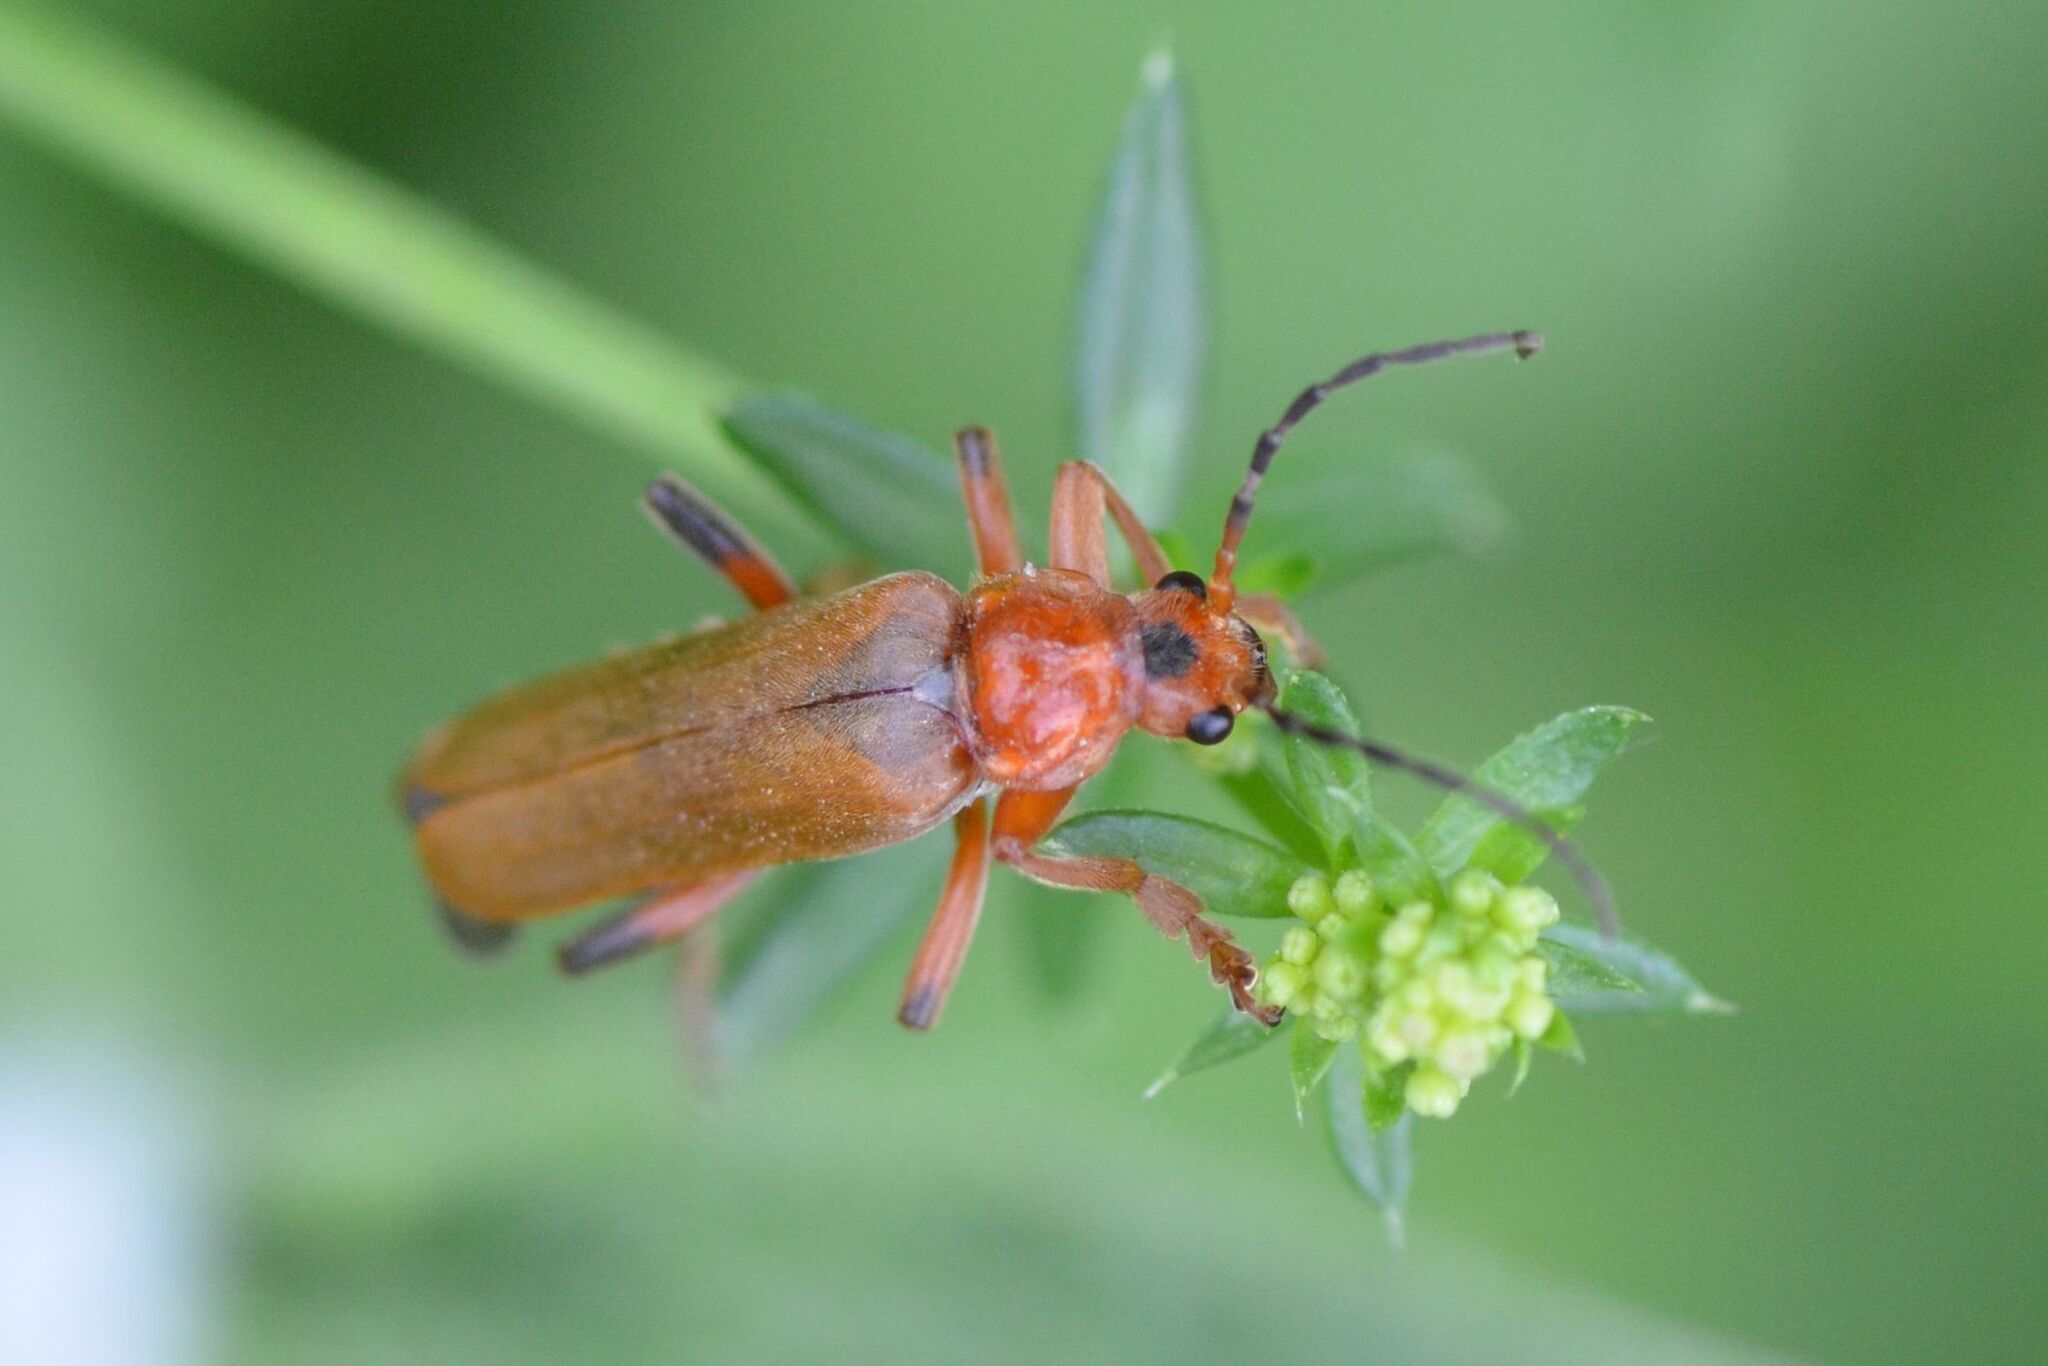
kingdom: Animalia
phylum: Arthropoda
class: Insecta
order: Coleoptera
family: Cantharidae
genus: Cantharis
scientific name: Cantharis livida
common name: Livid soldier beetle
